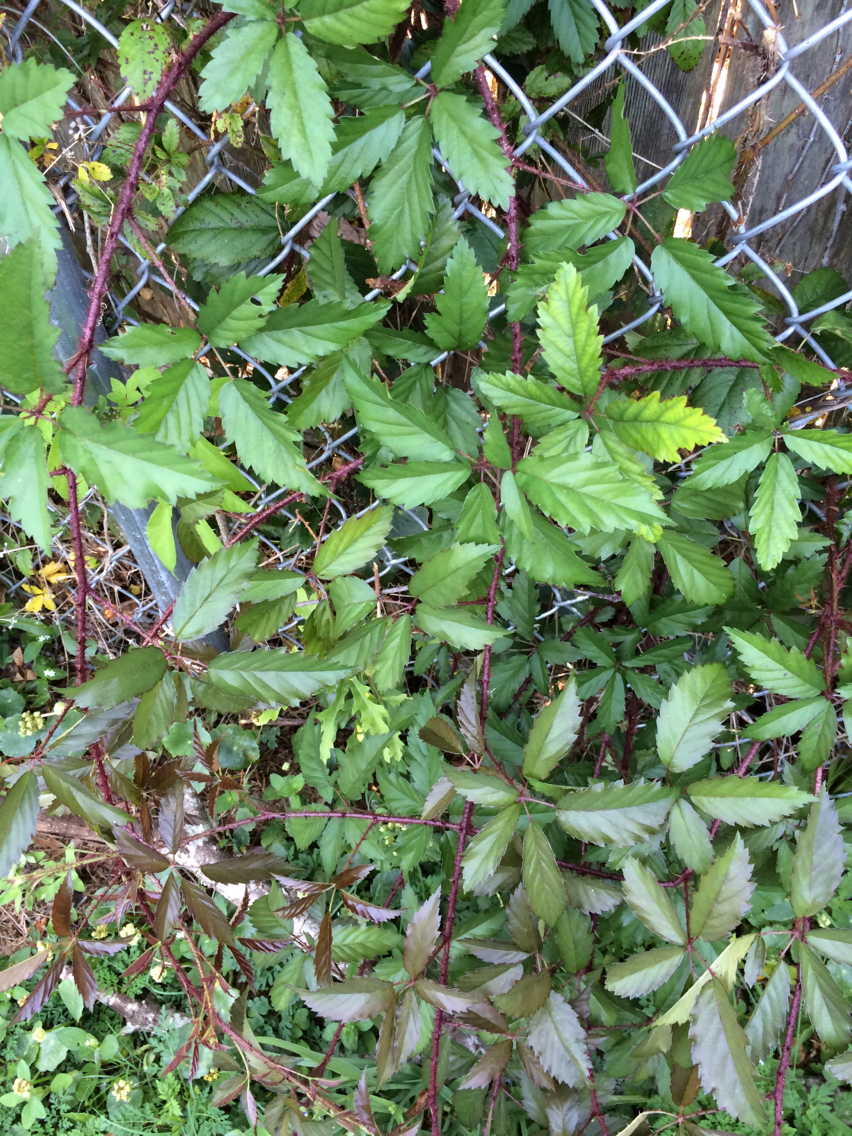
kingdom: Plantae
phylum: Tracheophyta
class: Magnoliopsida
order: Rosales
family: Rosaceae
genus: Rubus
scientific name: Rubus trivialis
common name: Southern dewberry
